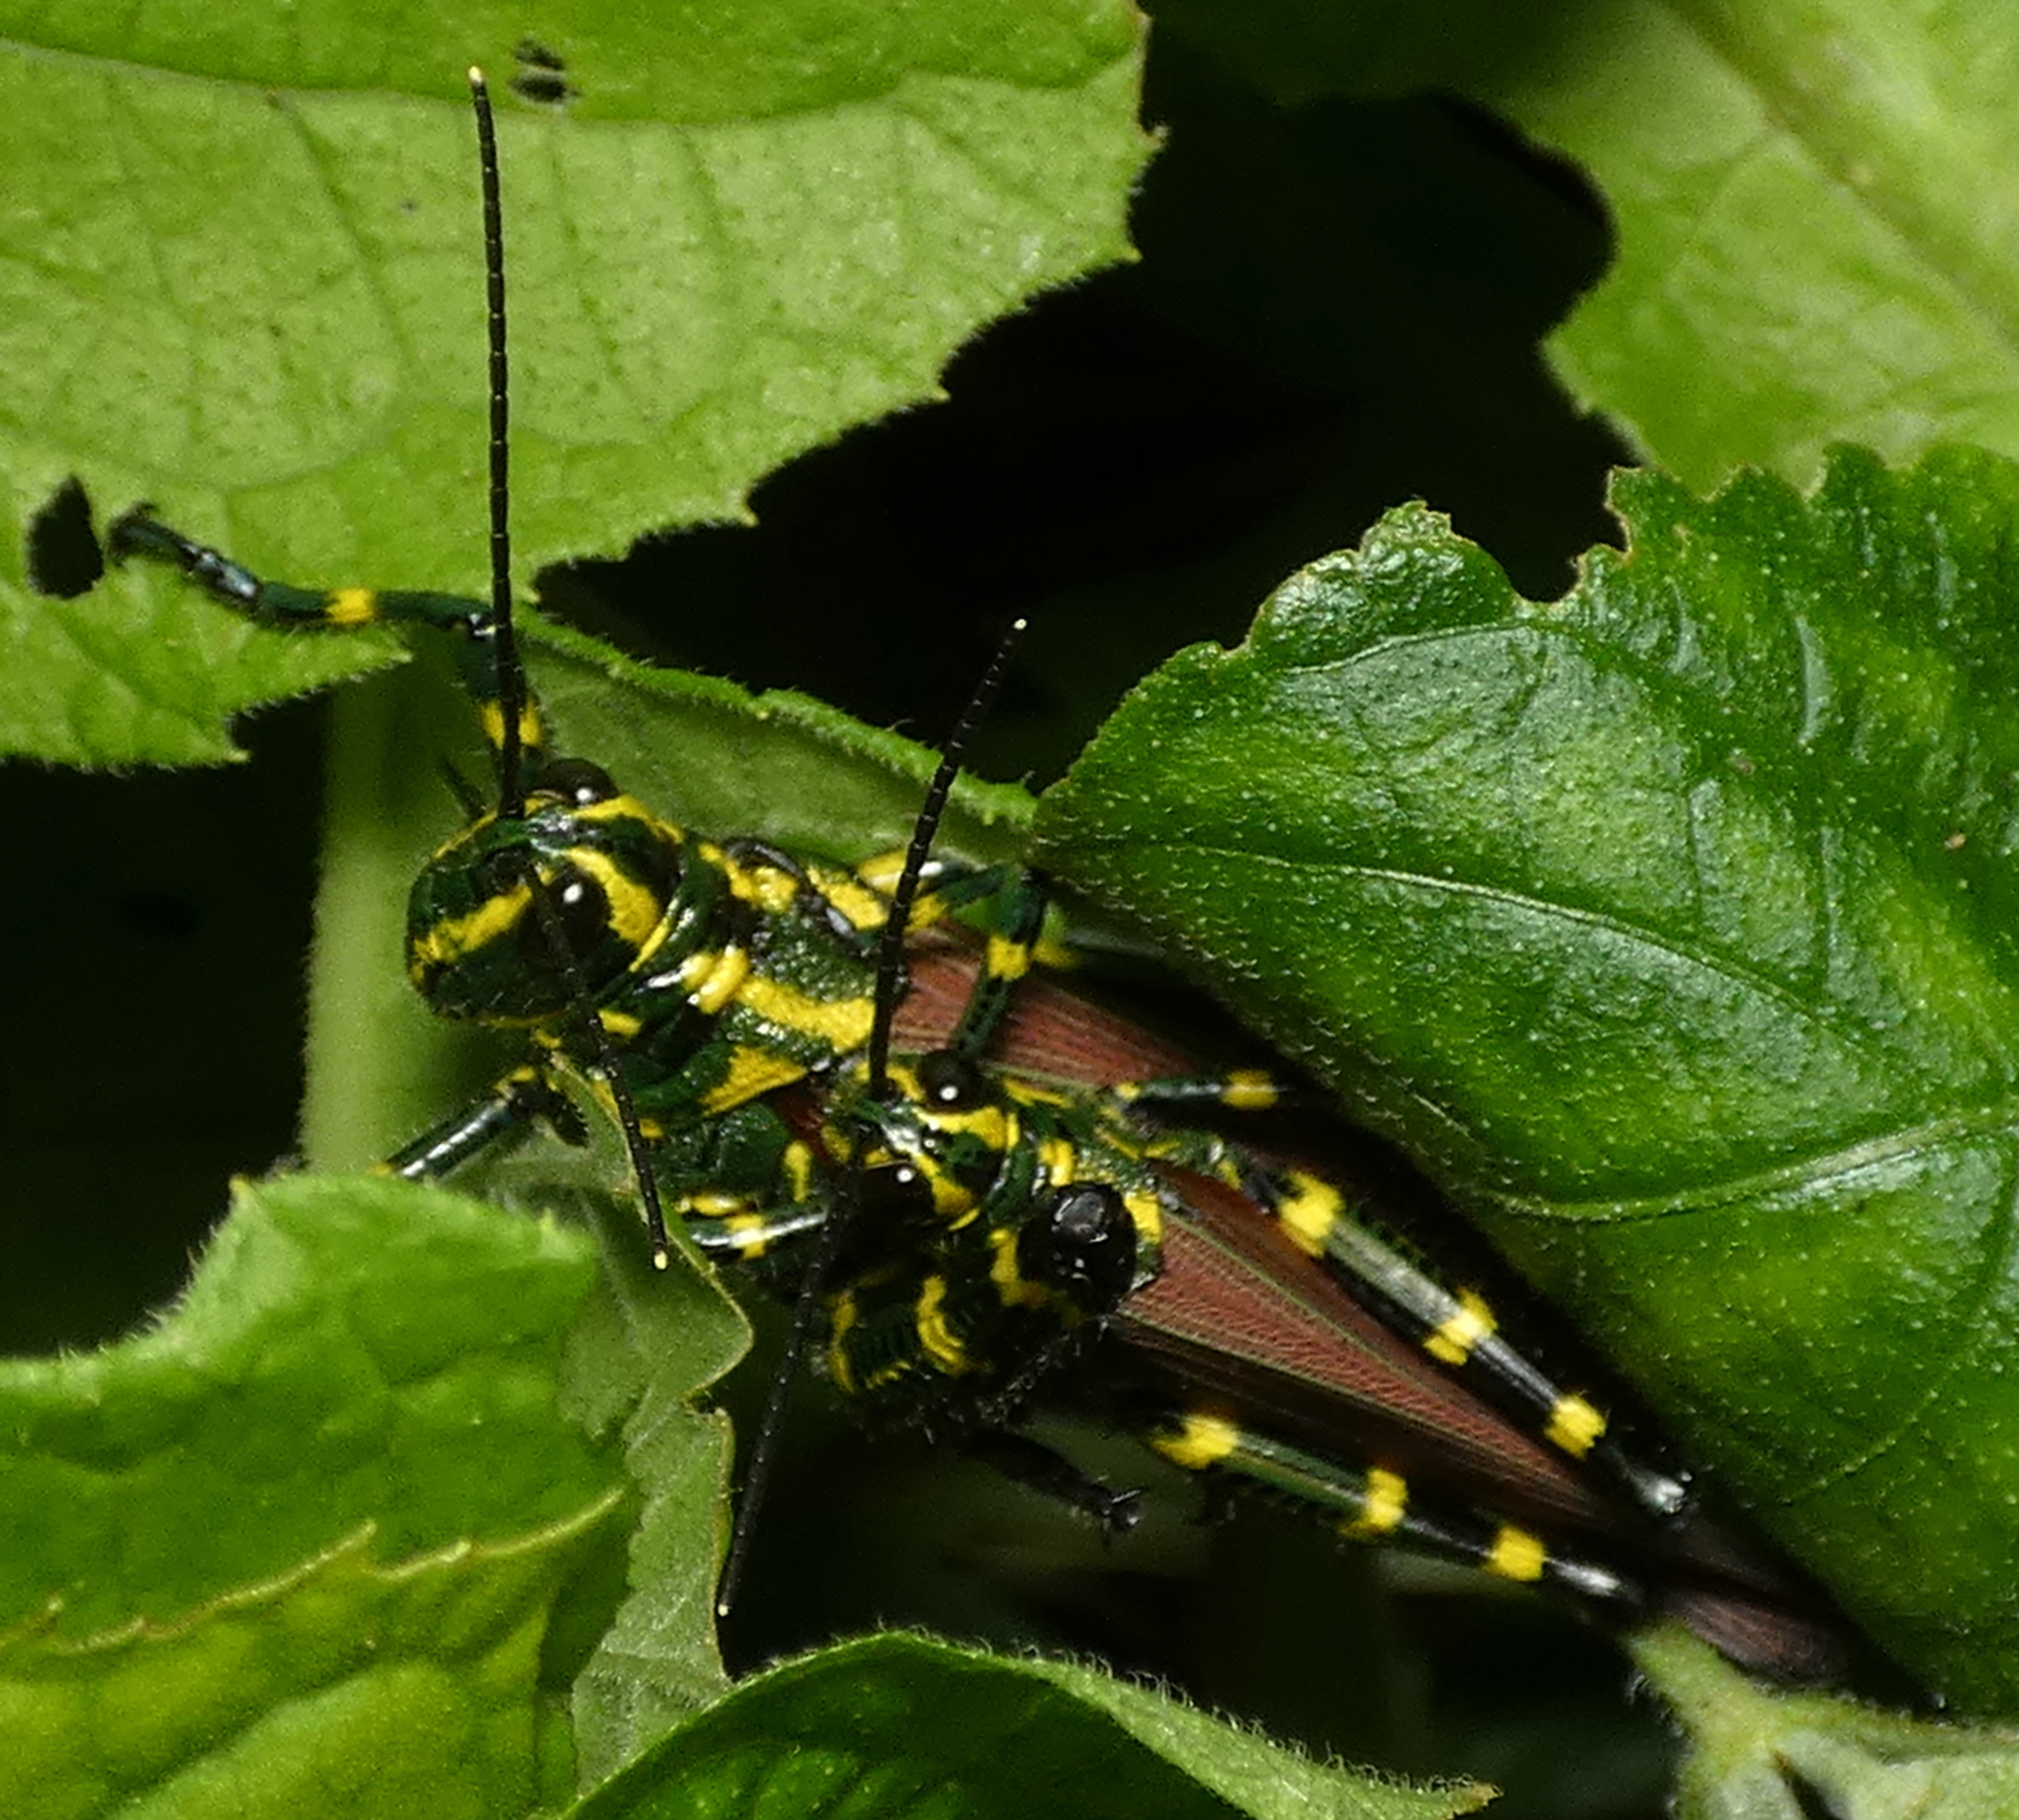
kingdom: Animalia
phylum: Arthropoda
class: Insecta
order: Orthoptera
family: Romaleidae
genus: Chromacris
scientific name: Chromacris speciosa
